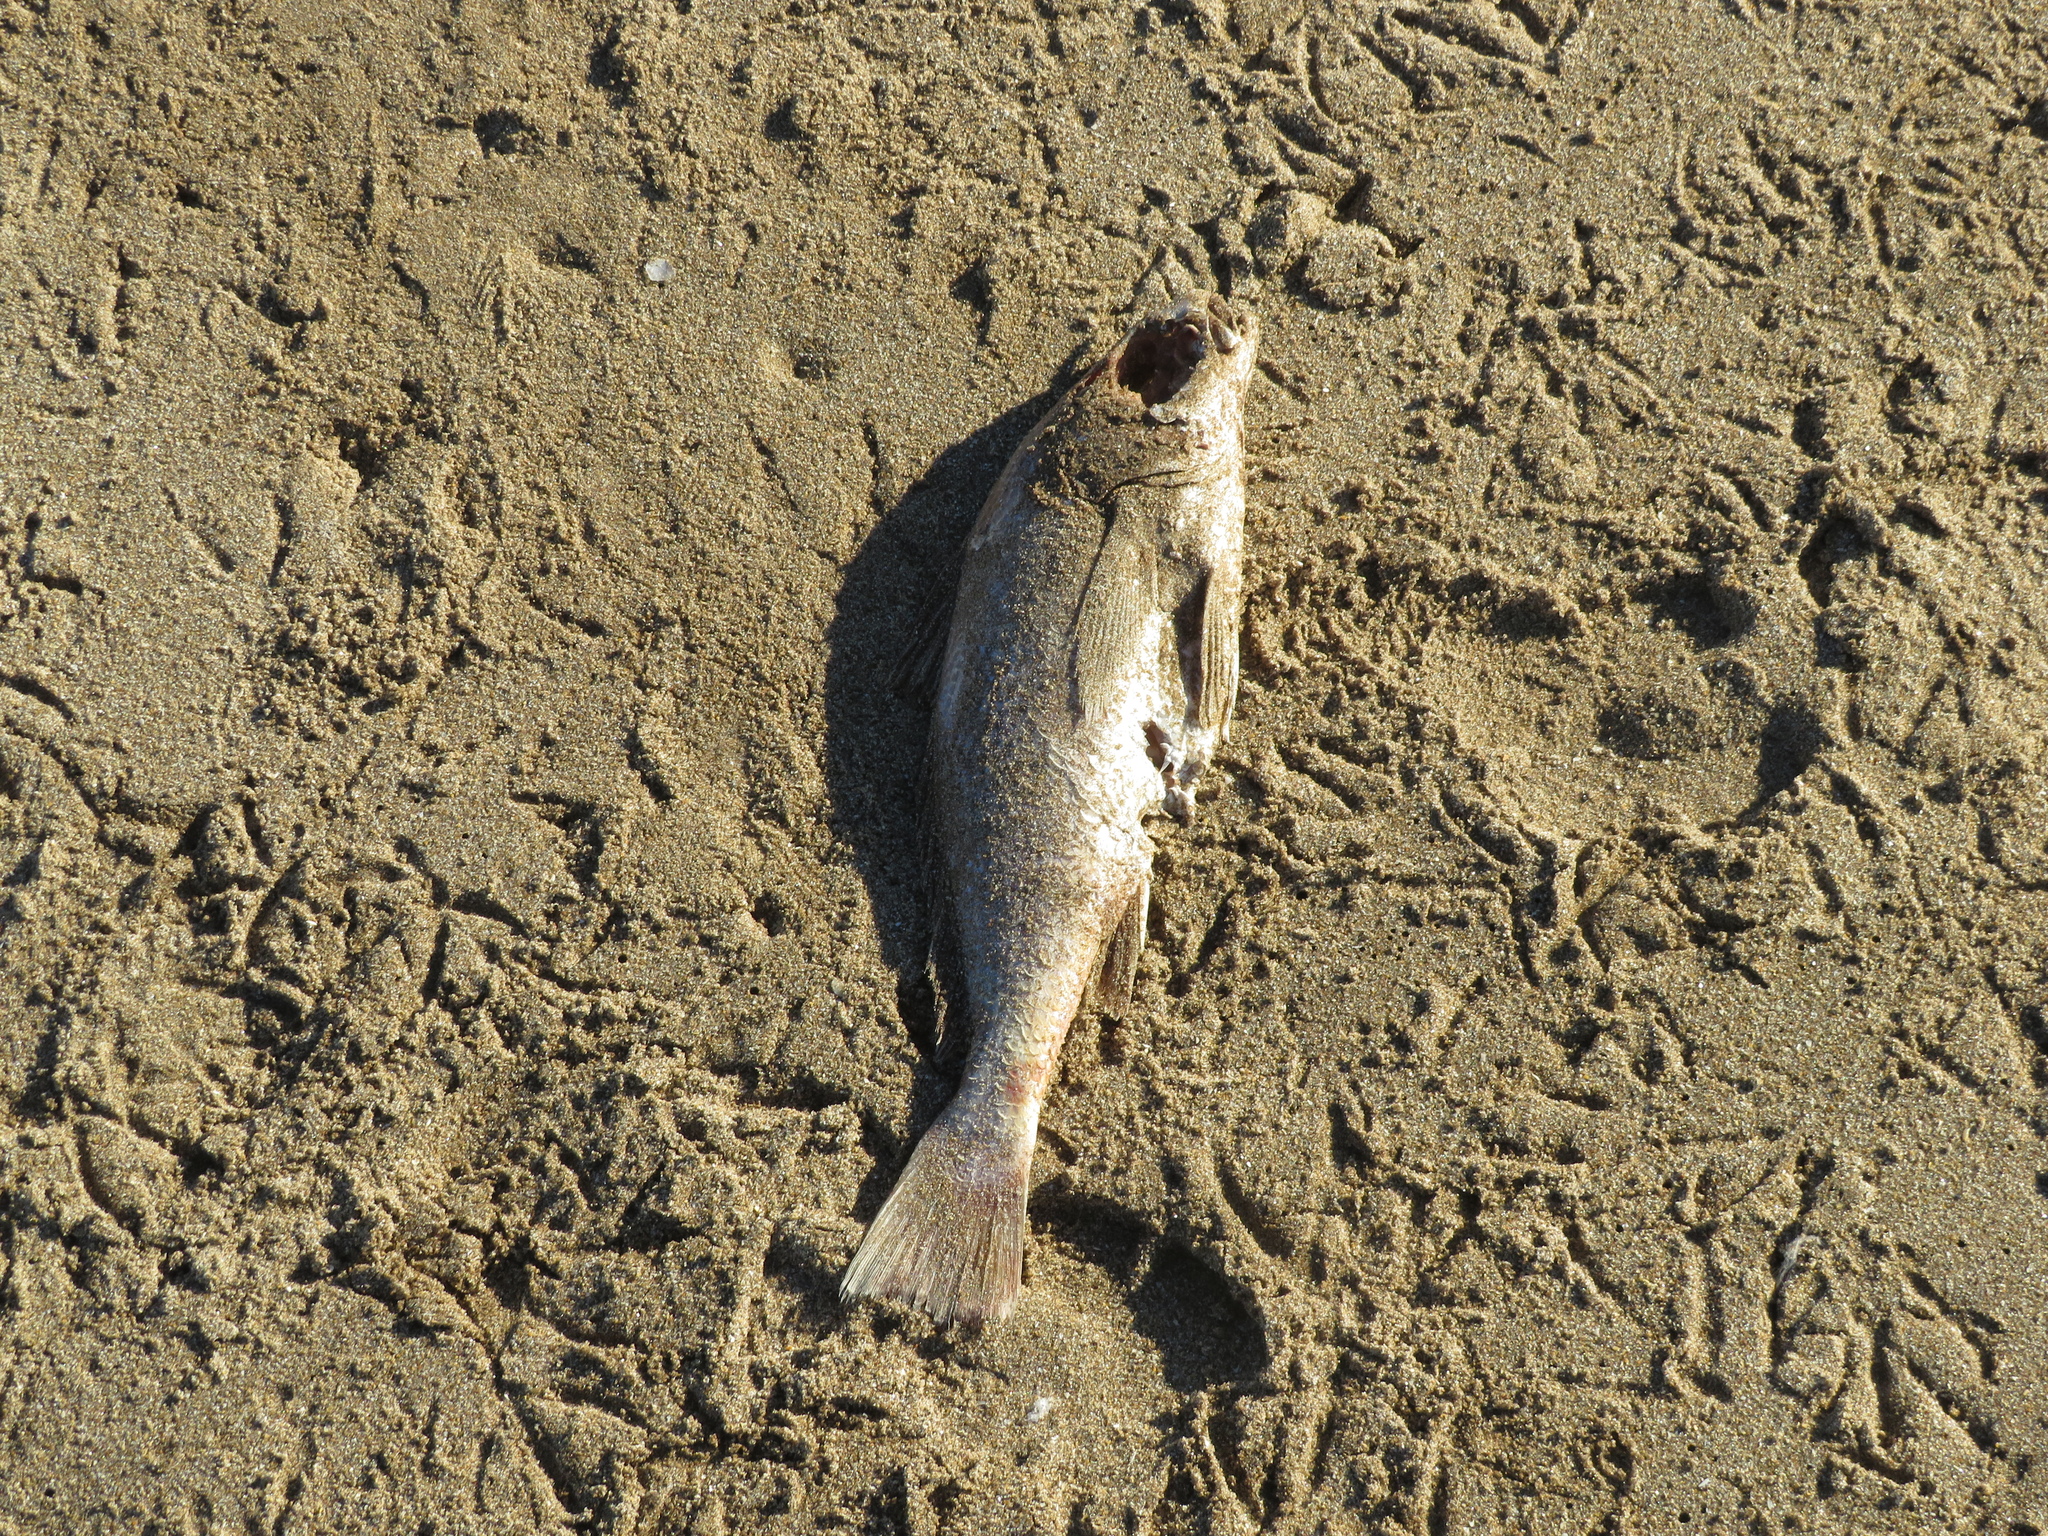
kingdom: Animalia
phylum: Chordata
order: Perciformes
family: Sciaenidae
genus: Micropogonias
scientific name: Micropogonias furnieri
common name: Whitemouth croaker
